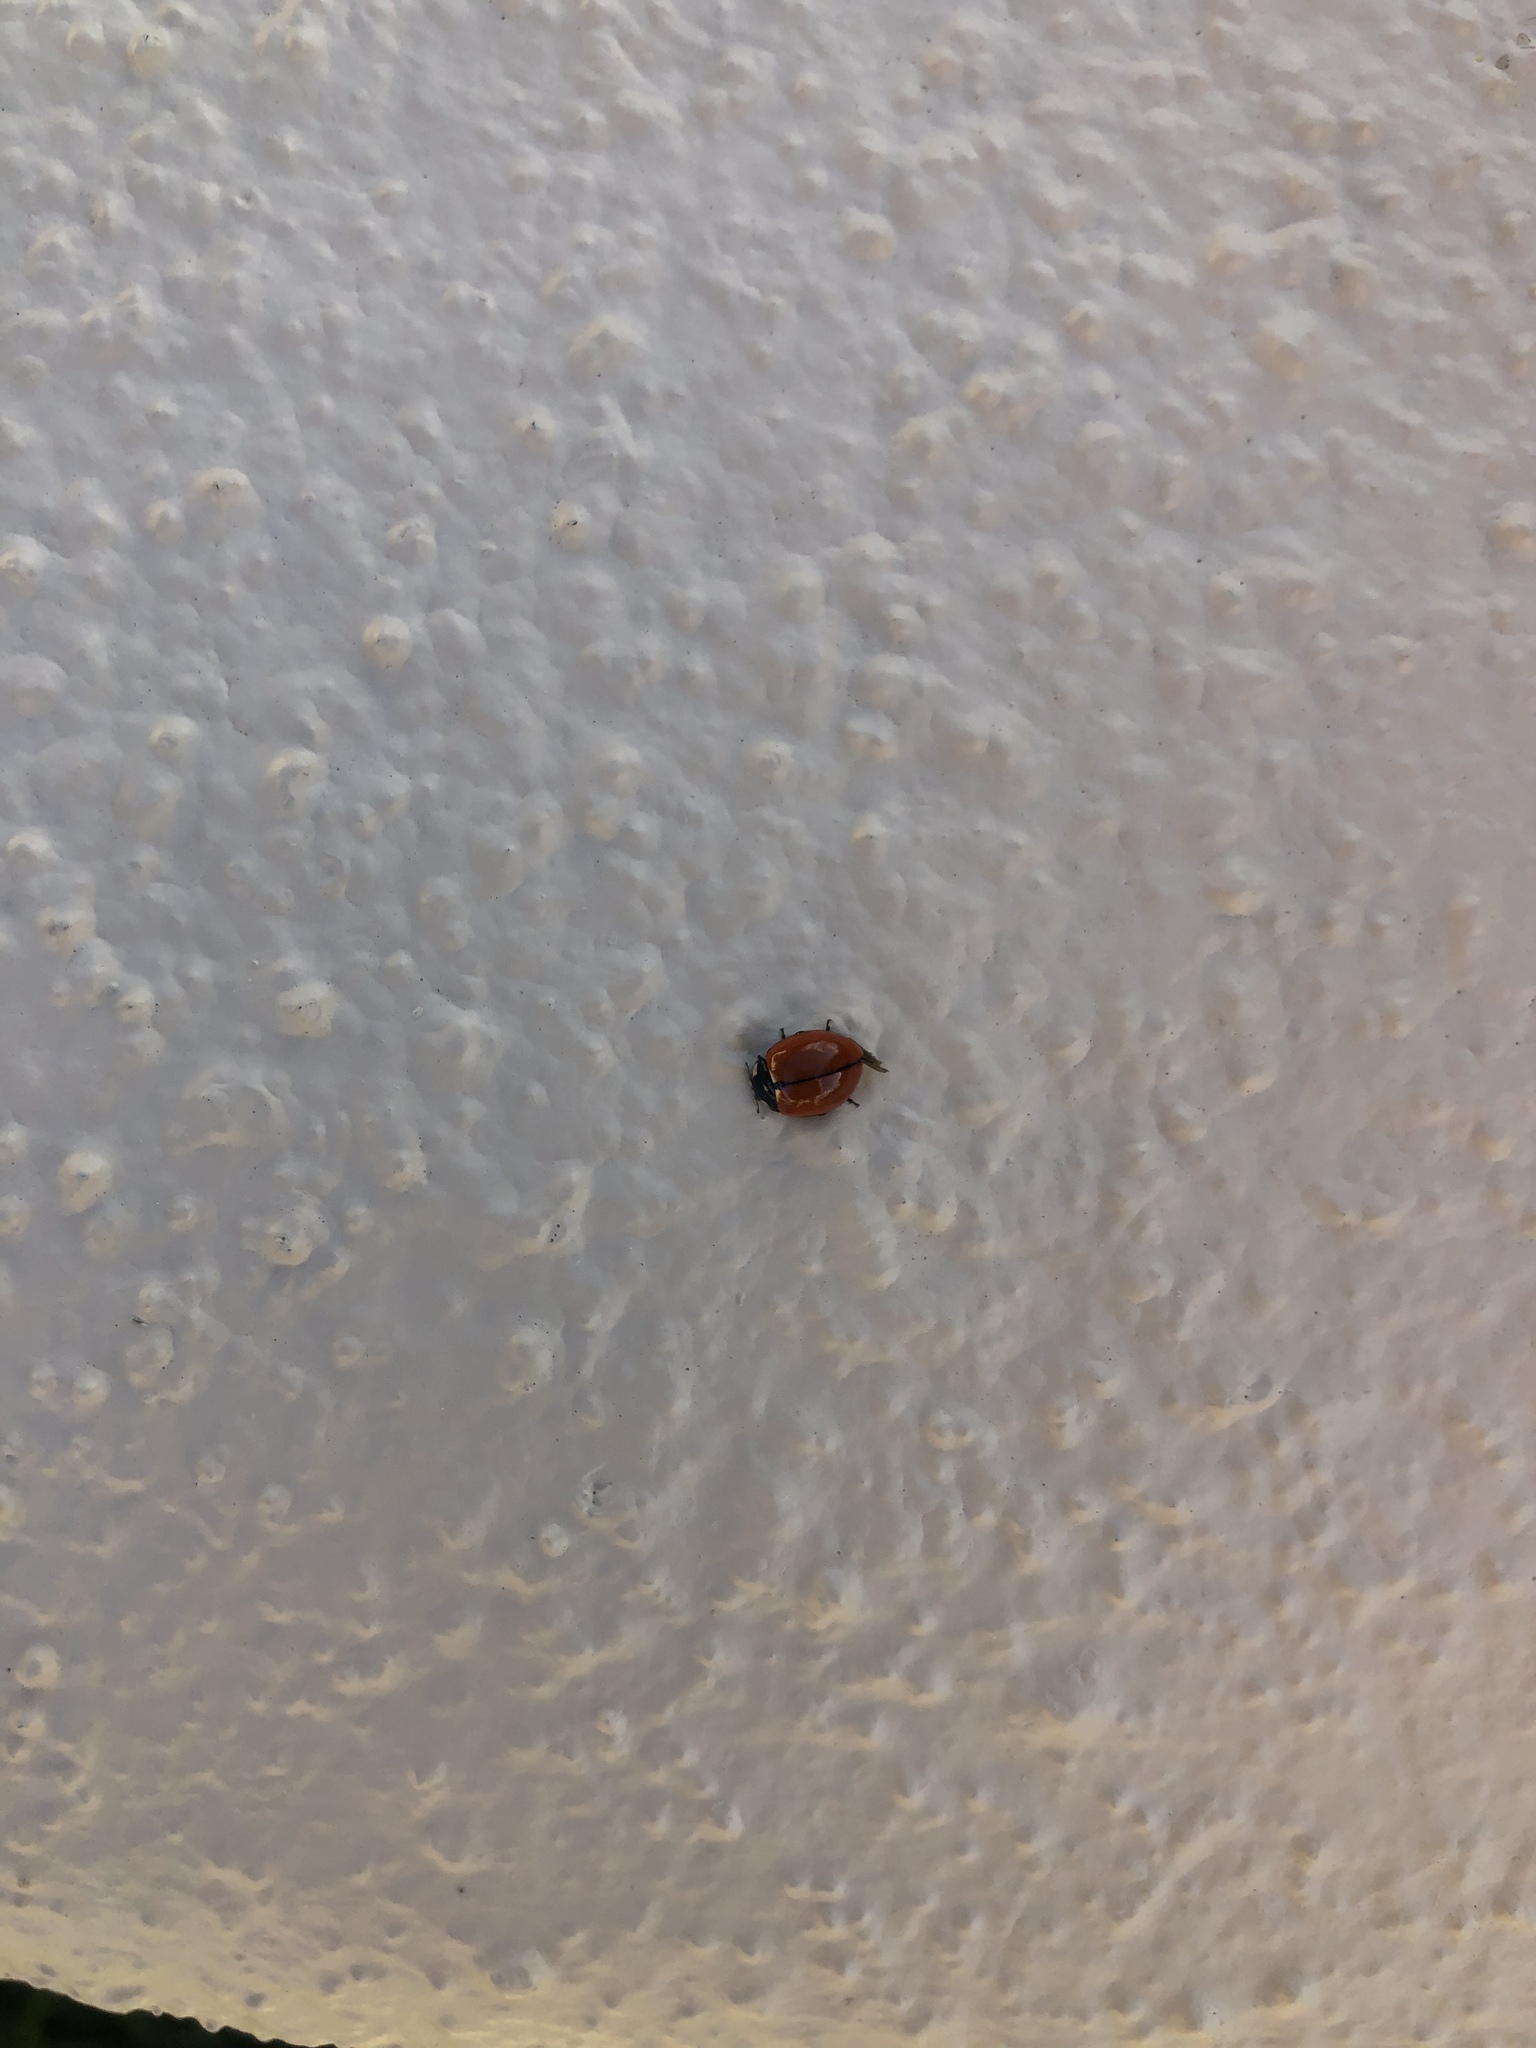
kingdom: Animalia
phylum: Arthropoda
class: Insecta
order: Coleoptera
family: Coccinellidae
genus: Coccinella
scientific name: Coccinella californica
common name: Lady beetle
